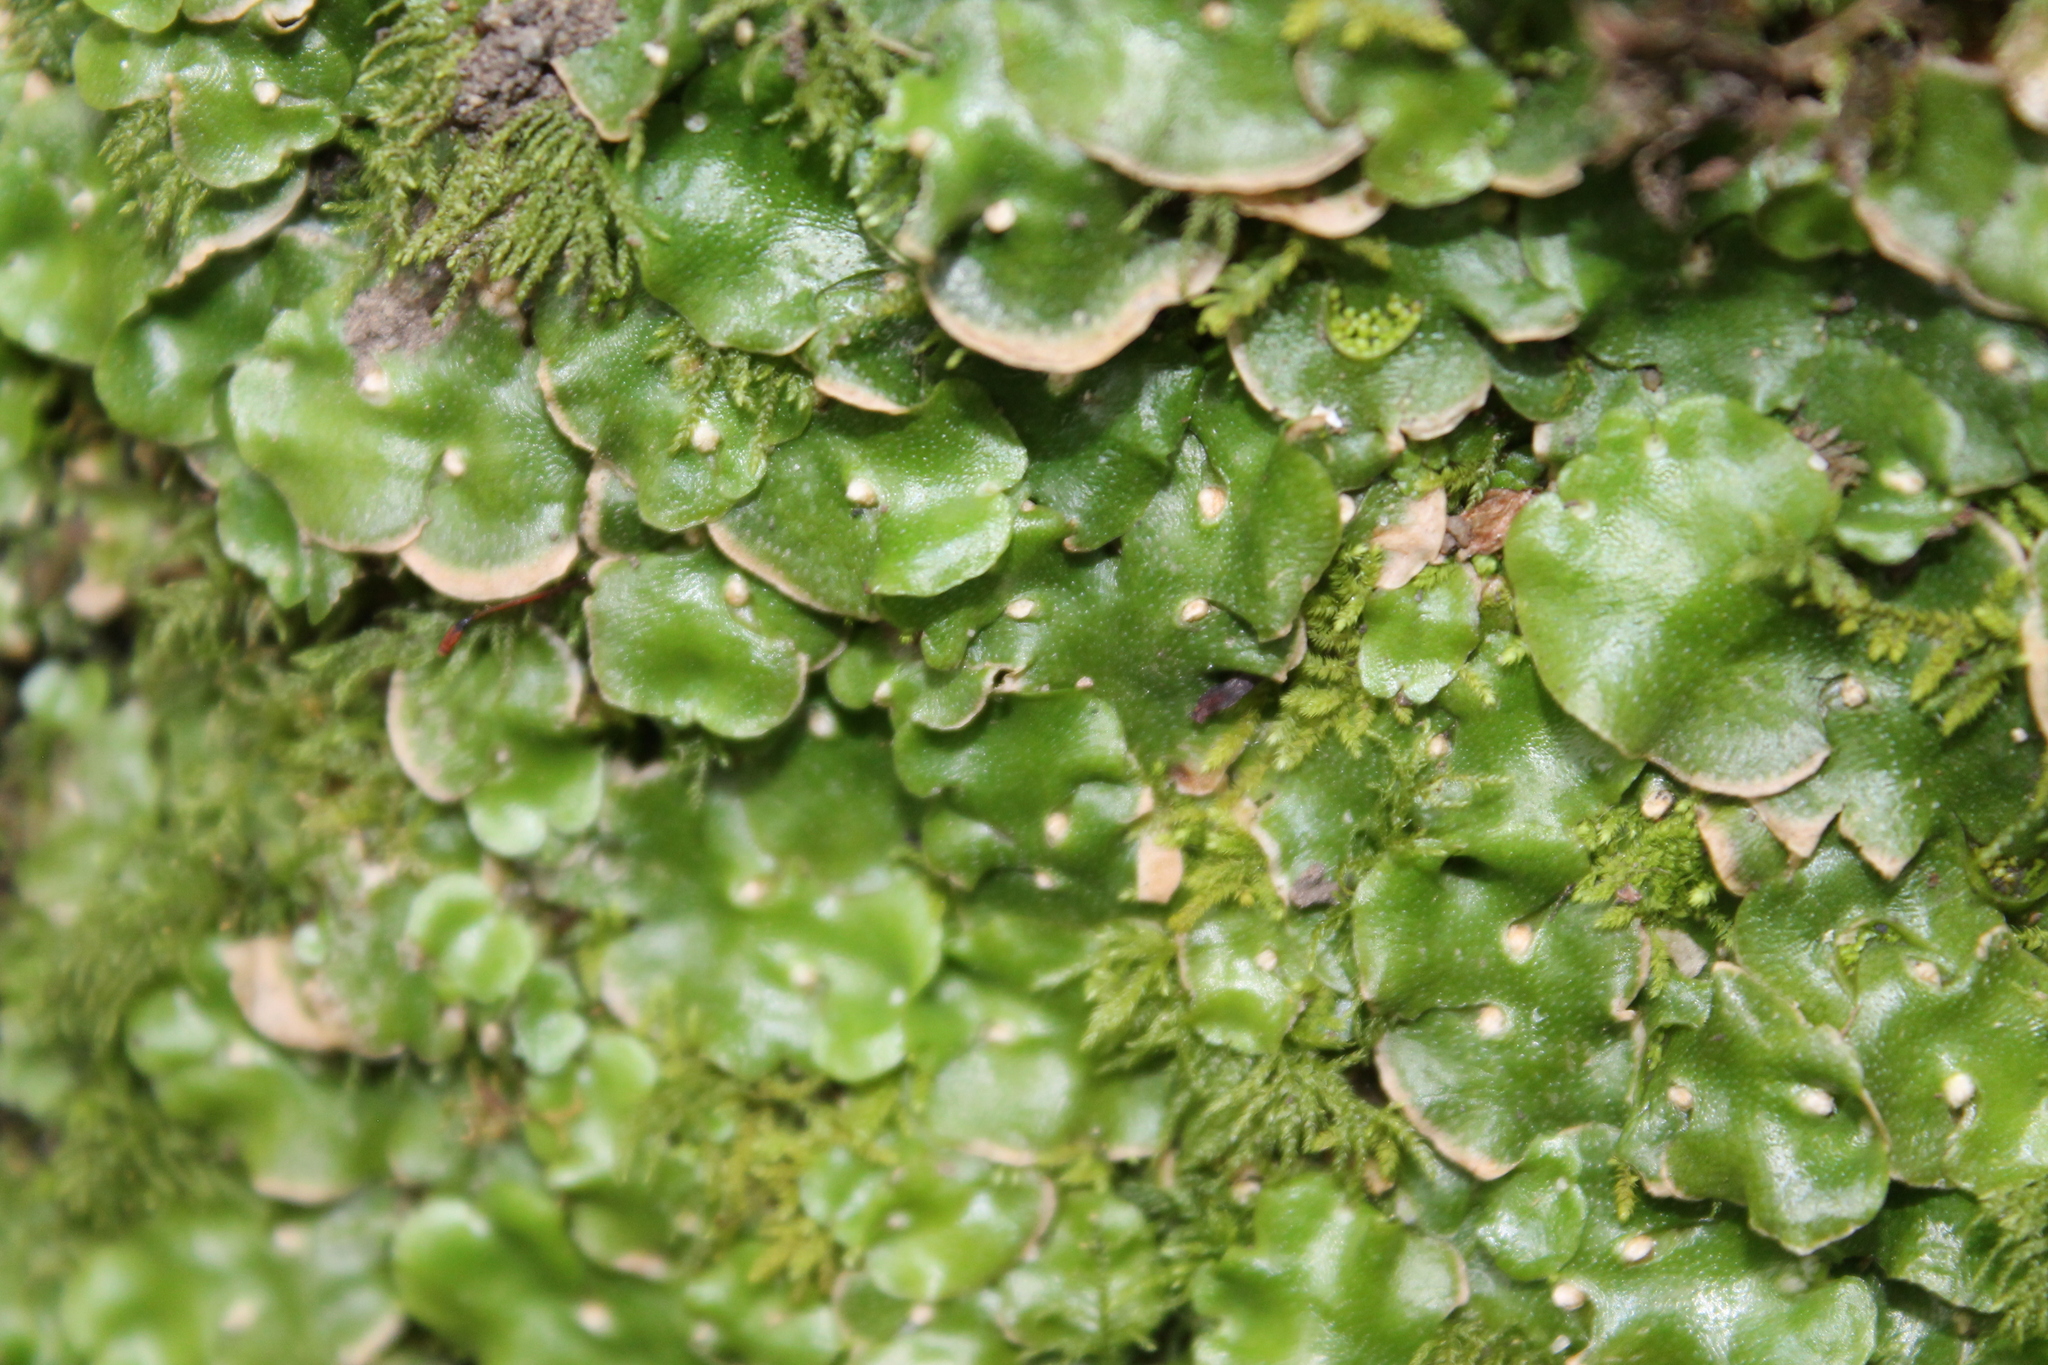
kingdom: Plantae
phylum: Marchantiophyta
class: Marchantiopsida
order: Lunulariales
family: Lunulariaceae
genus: Lunularia
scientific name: Lunularia cruciata
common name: Crescent-cup liverwort
